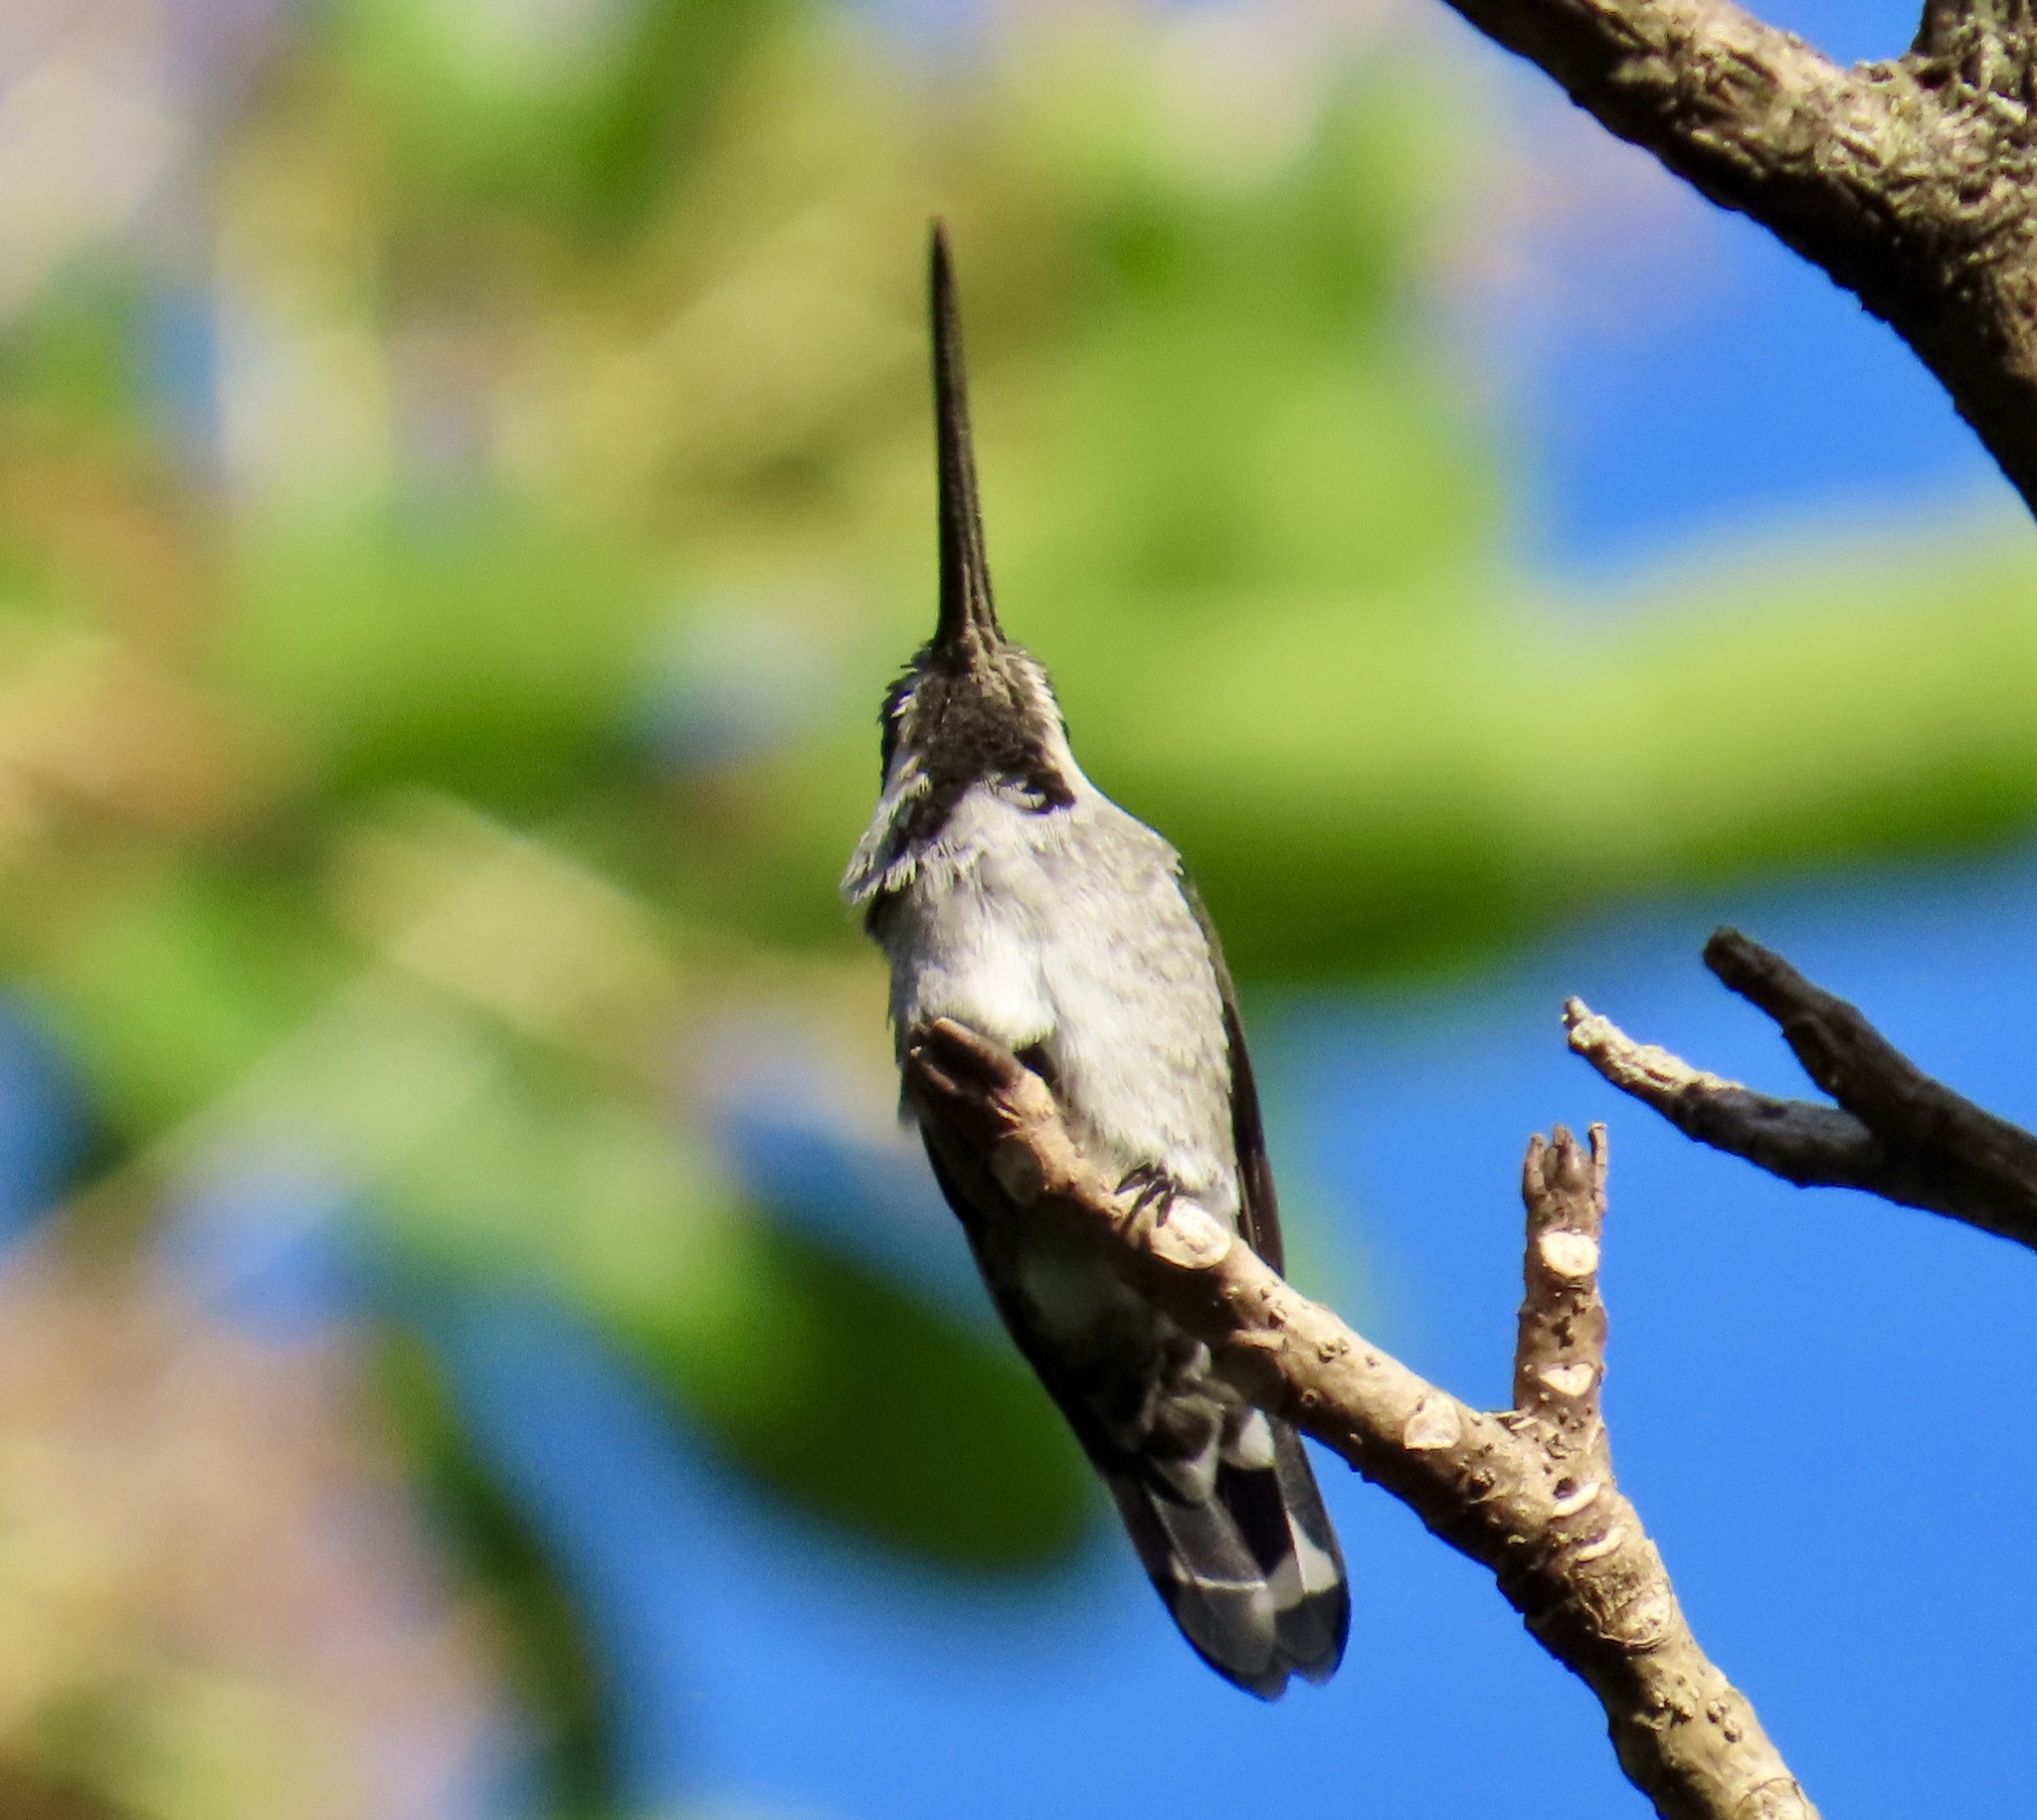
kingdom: Animalia
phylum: Chordata
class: Aves
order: Apodiformes
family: Trochilidae
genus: Heliomaster
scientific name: Heliomaster longirostris
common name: Long-billed starthroat
